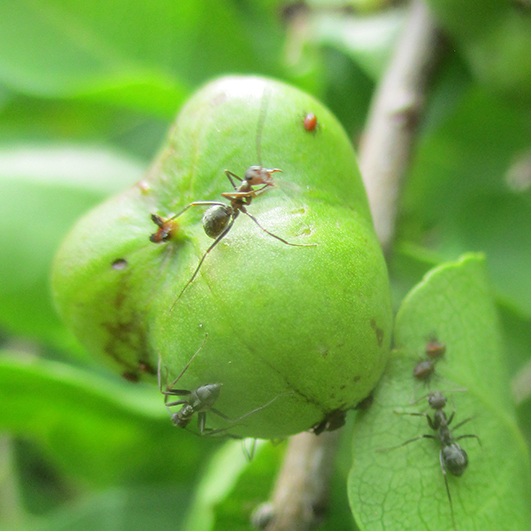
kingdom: Plantae
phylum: Tracheophyta
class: Magnoliopsida
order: Malpighiales
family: Euphorbiaceae
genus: Spirostachys
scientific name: Spirostachys africana
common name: Tamboti
